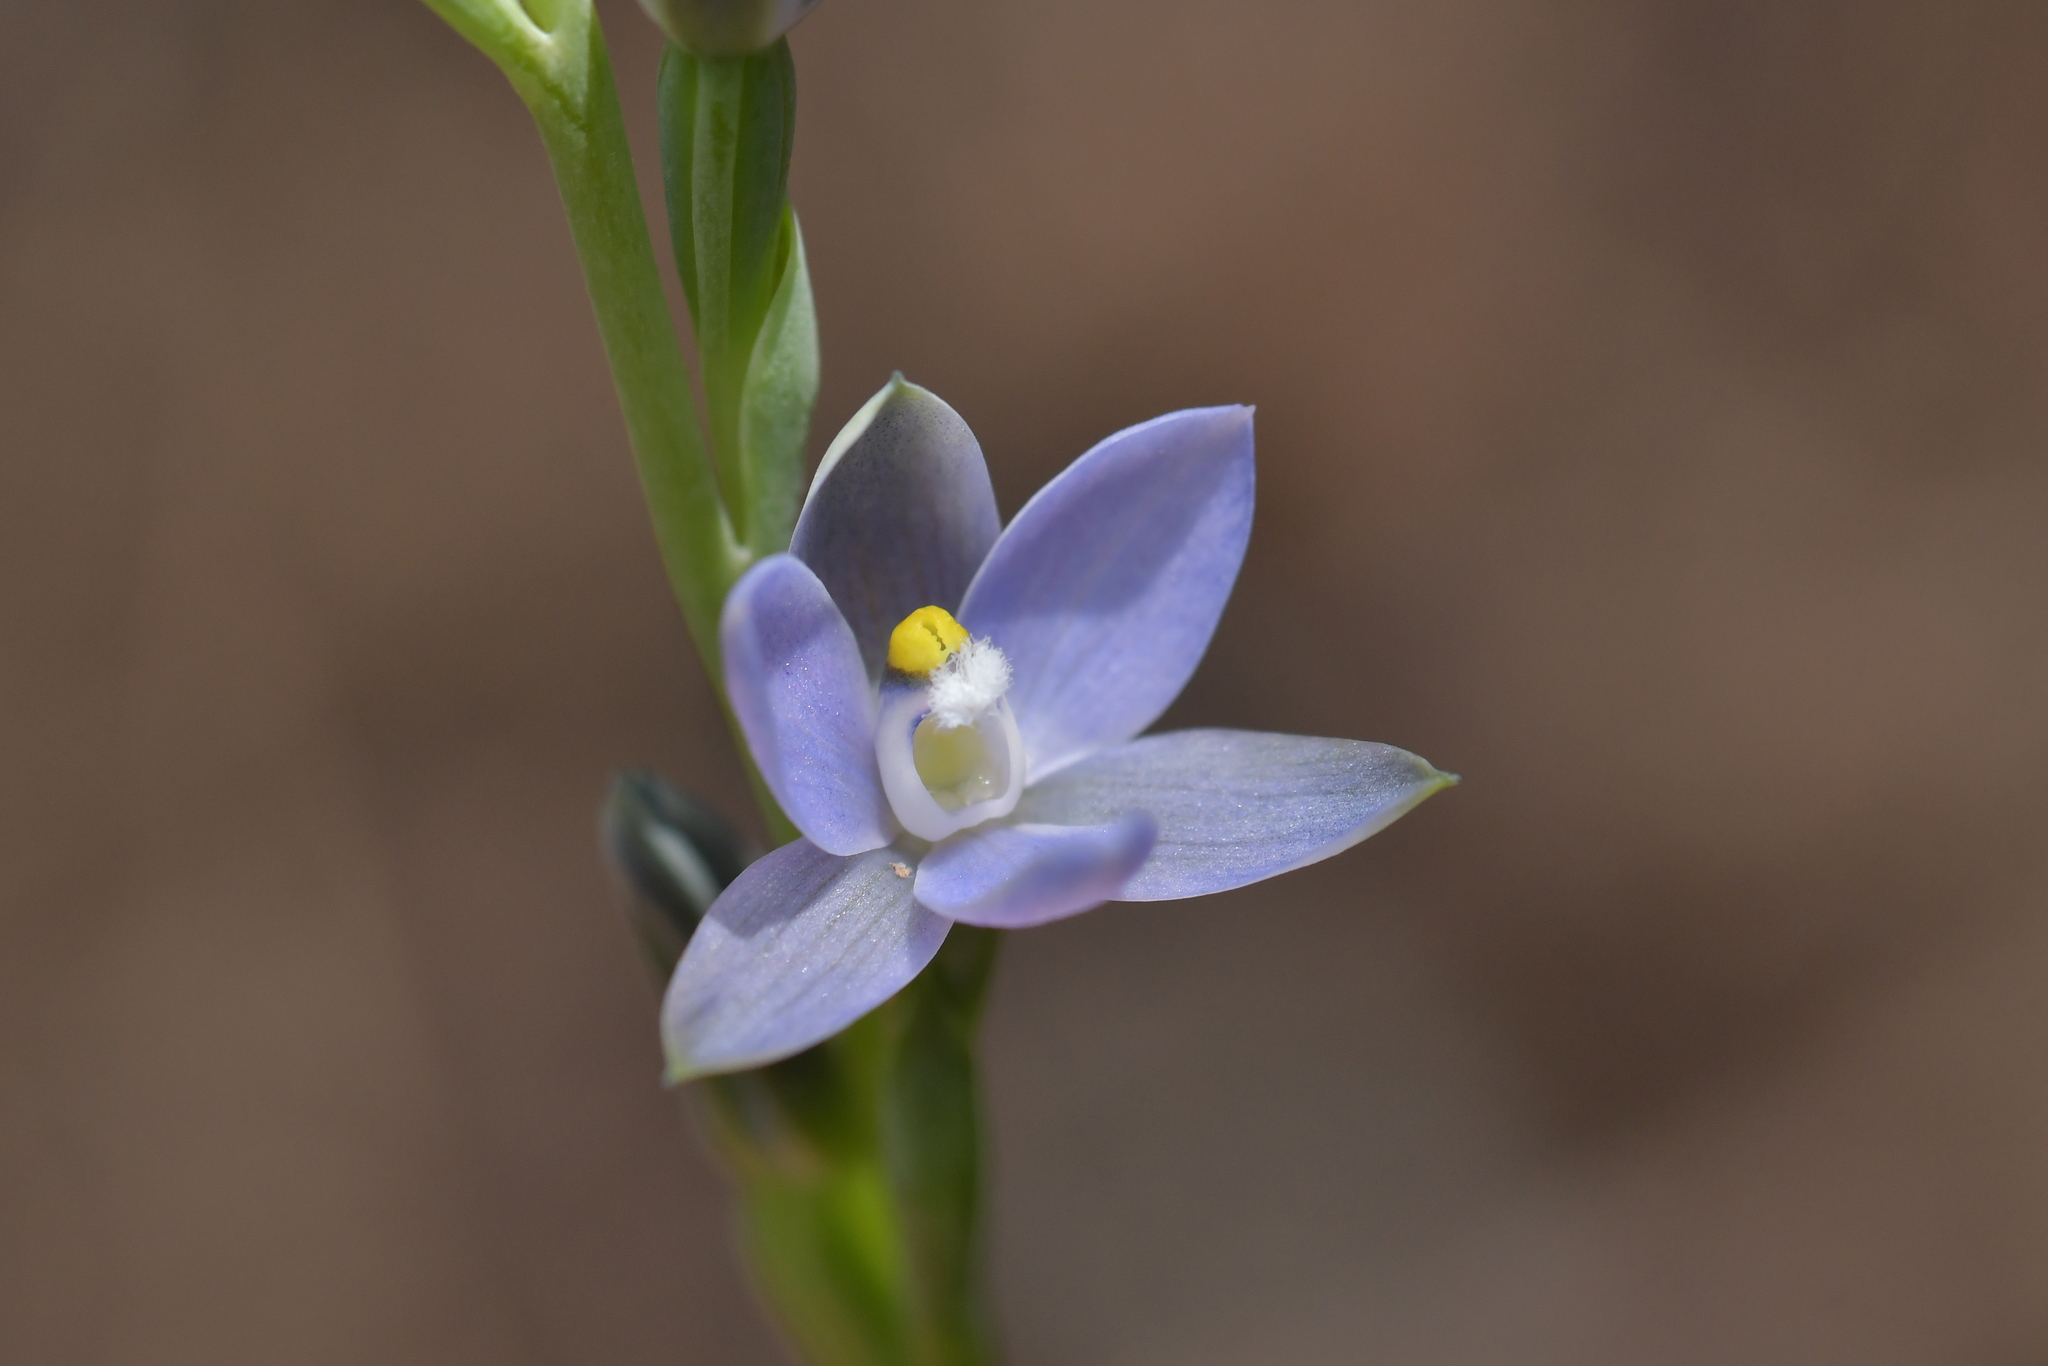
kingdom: Plantae
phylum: Tracheophyta
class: Liliopsida
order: Asparagales
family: Orchidaceae
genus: Thelymitra
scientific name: Thelymitra tholiformis
